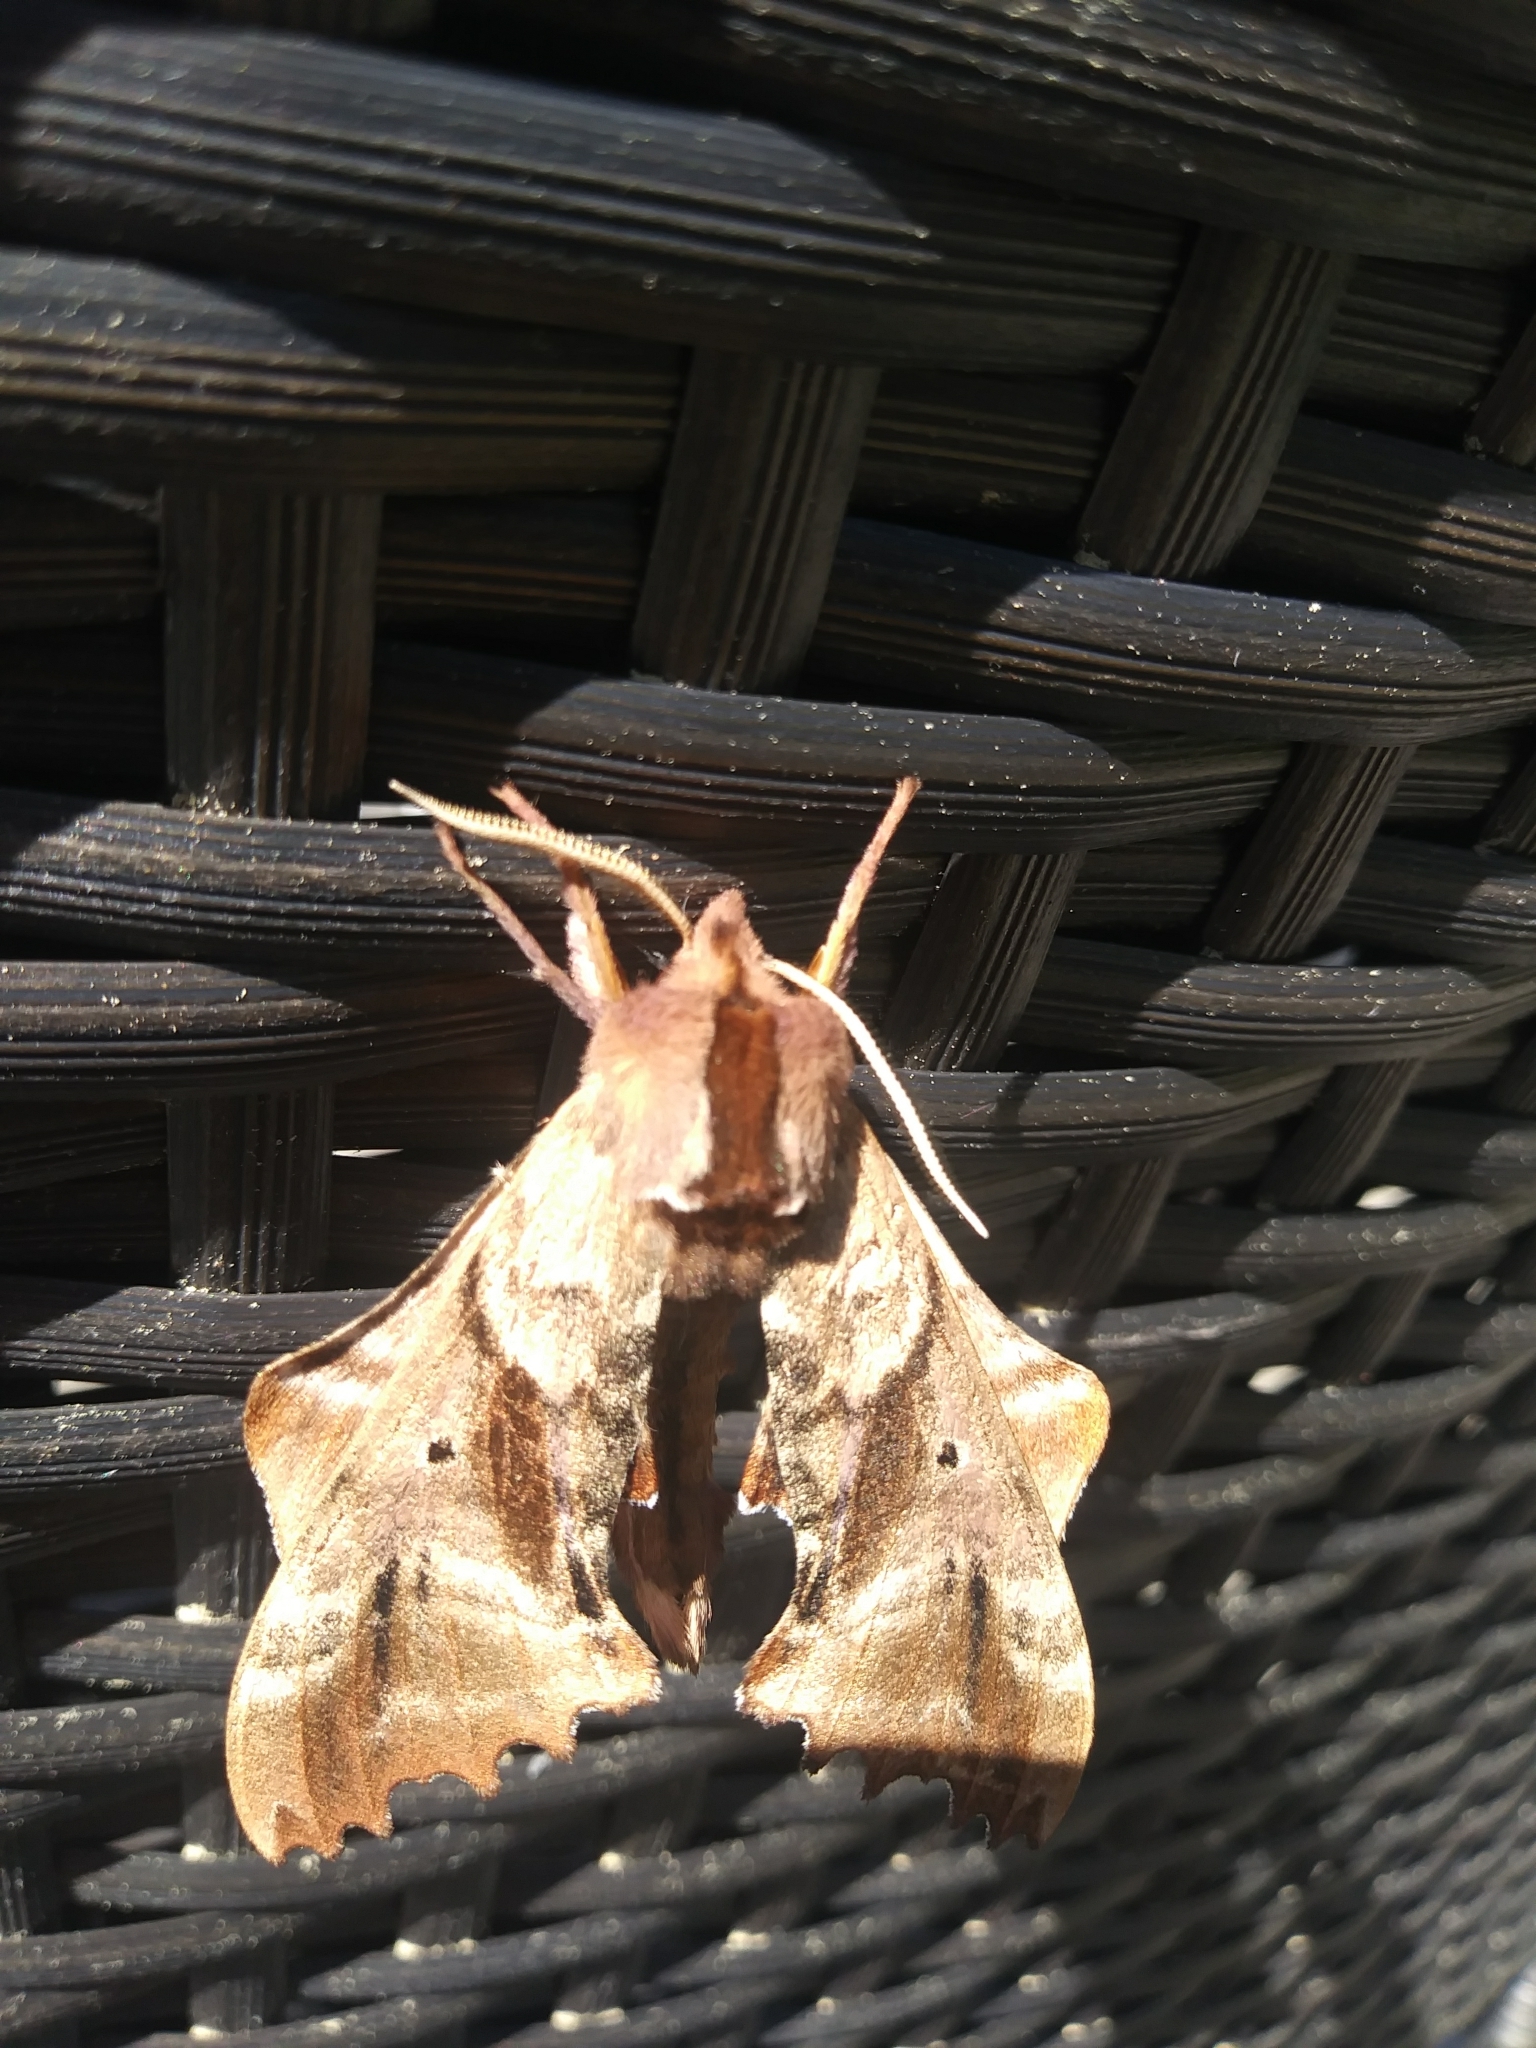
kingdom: Animalia
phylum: Arthropoda
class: Insecta
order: Lepidoptera
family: Sphingidae
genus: Paonias
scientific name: Paonias excaecata
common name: Blind-eyed sphinx
